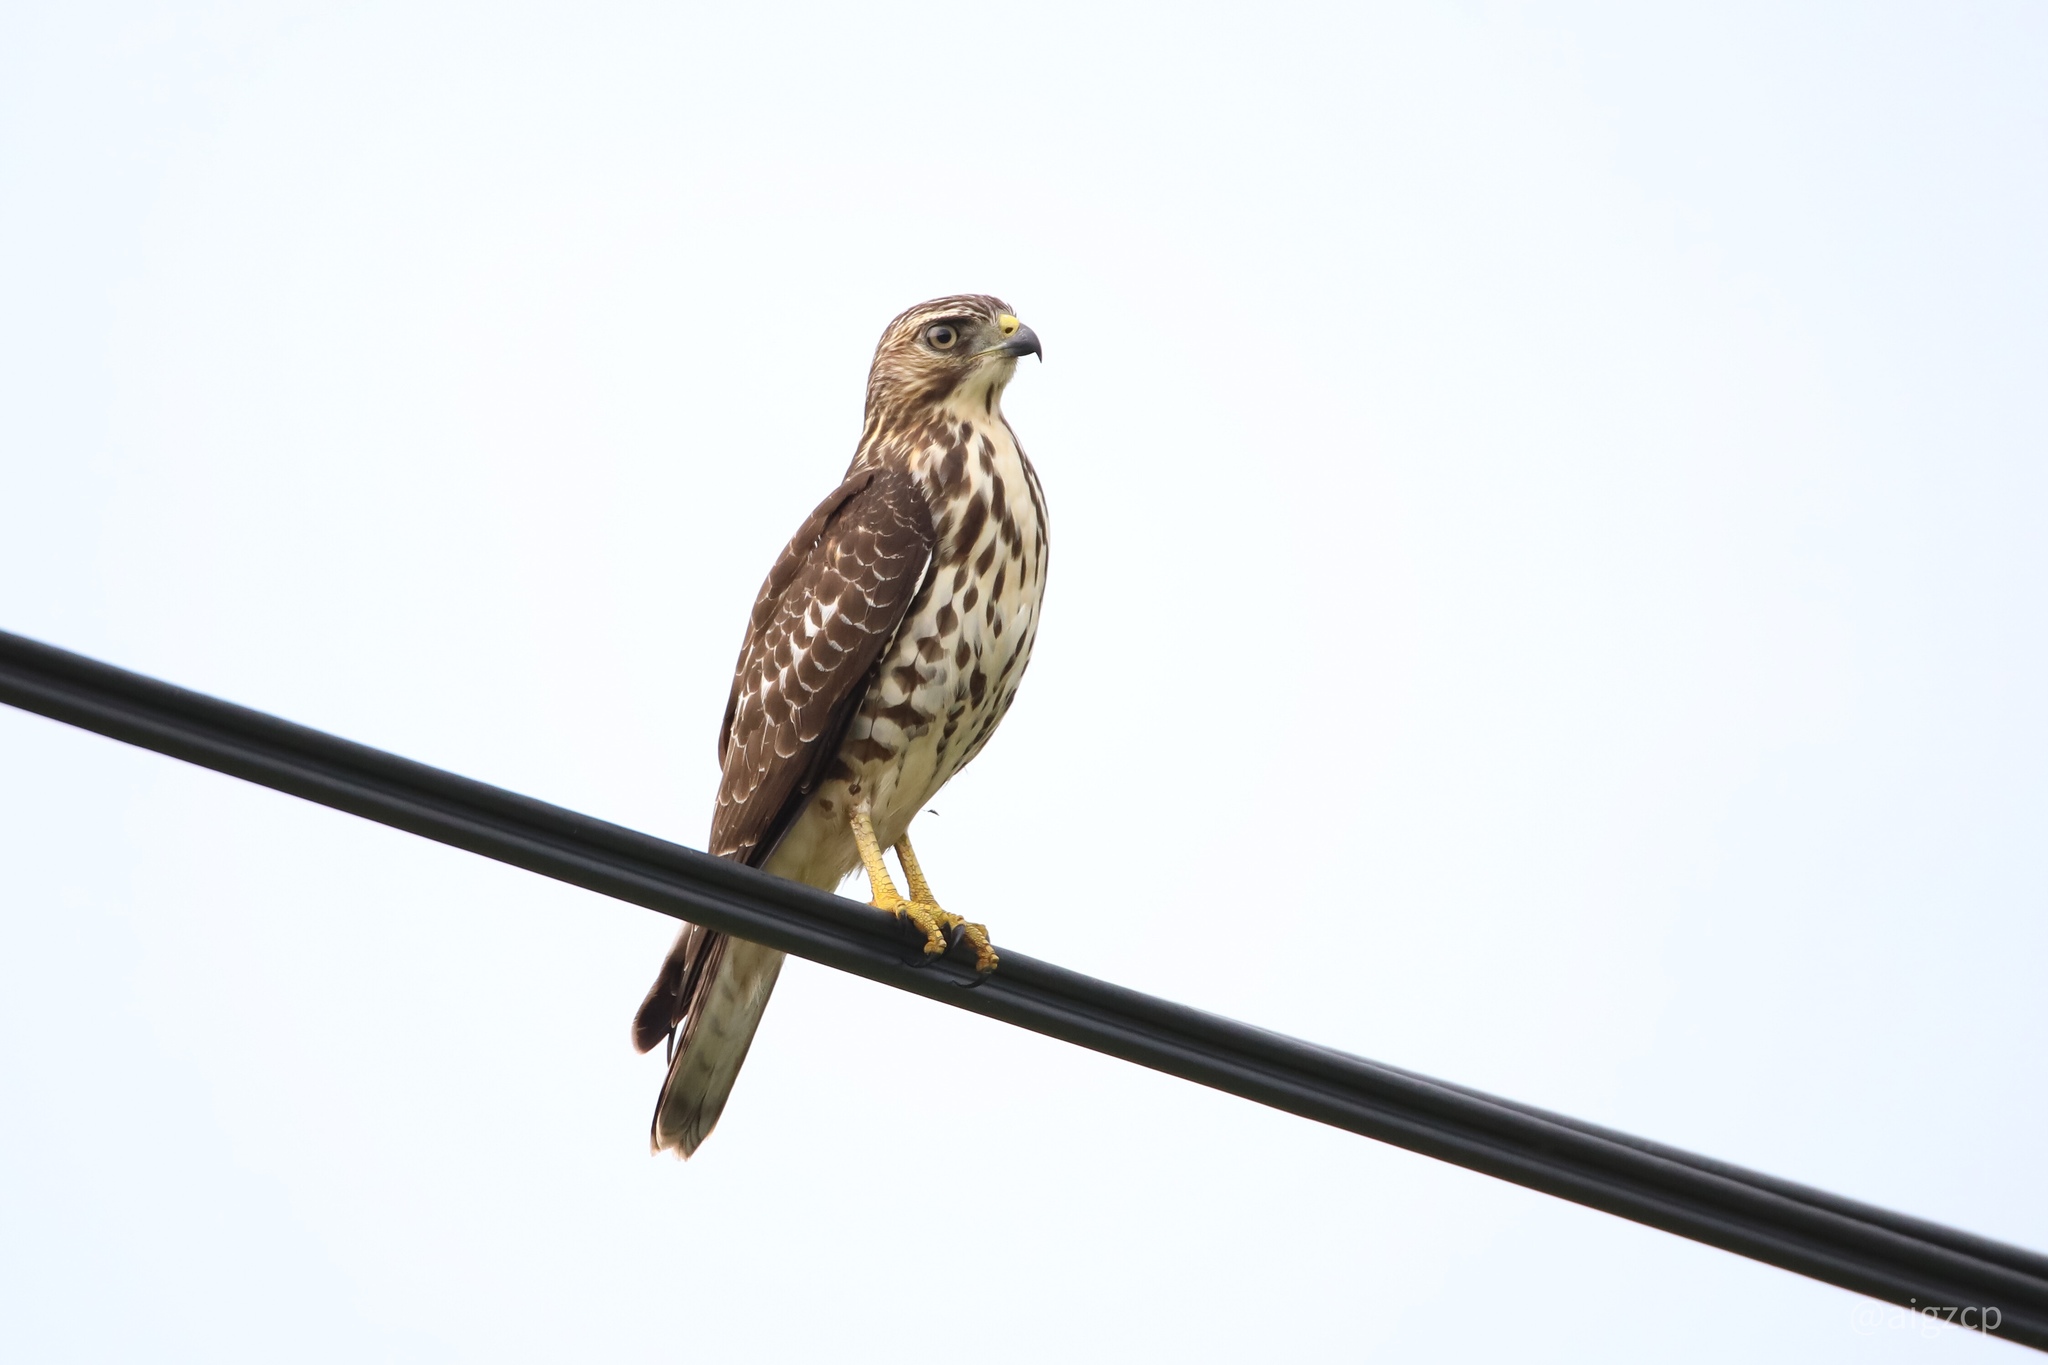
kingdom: Animalia
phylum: Chordata
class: Aves
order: Accipitriformes
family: Accipitridae
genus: Buteo
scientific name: Buteo platypterus
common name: Broad-winged hawk
